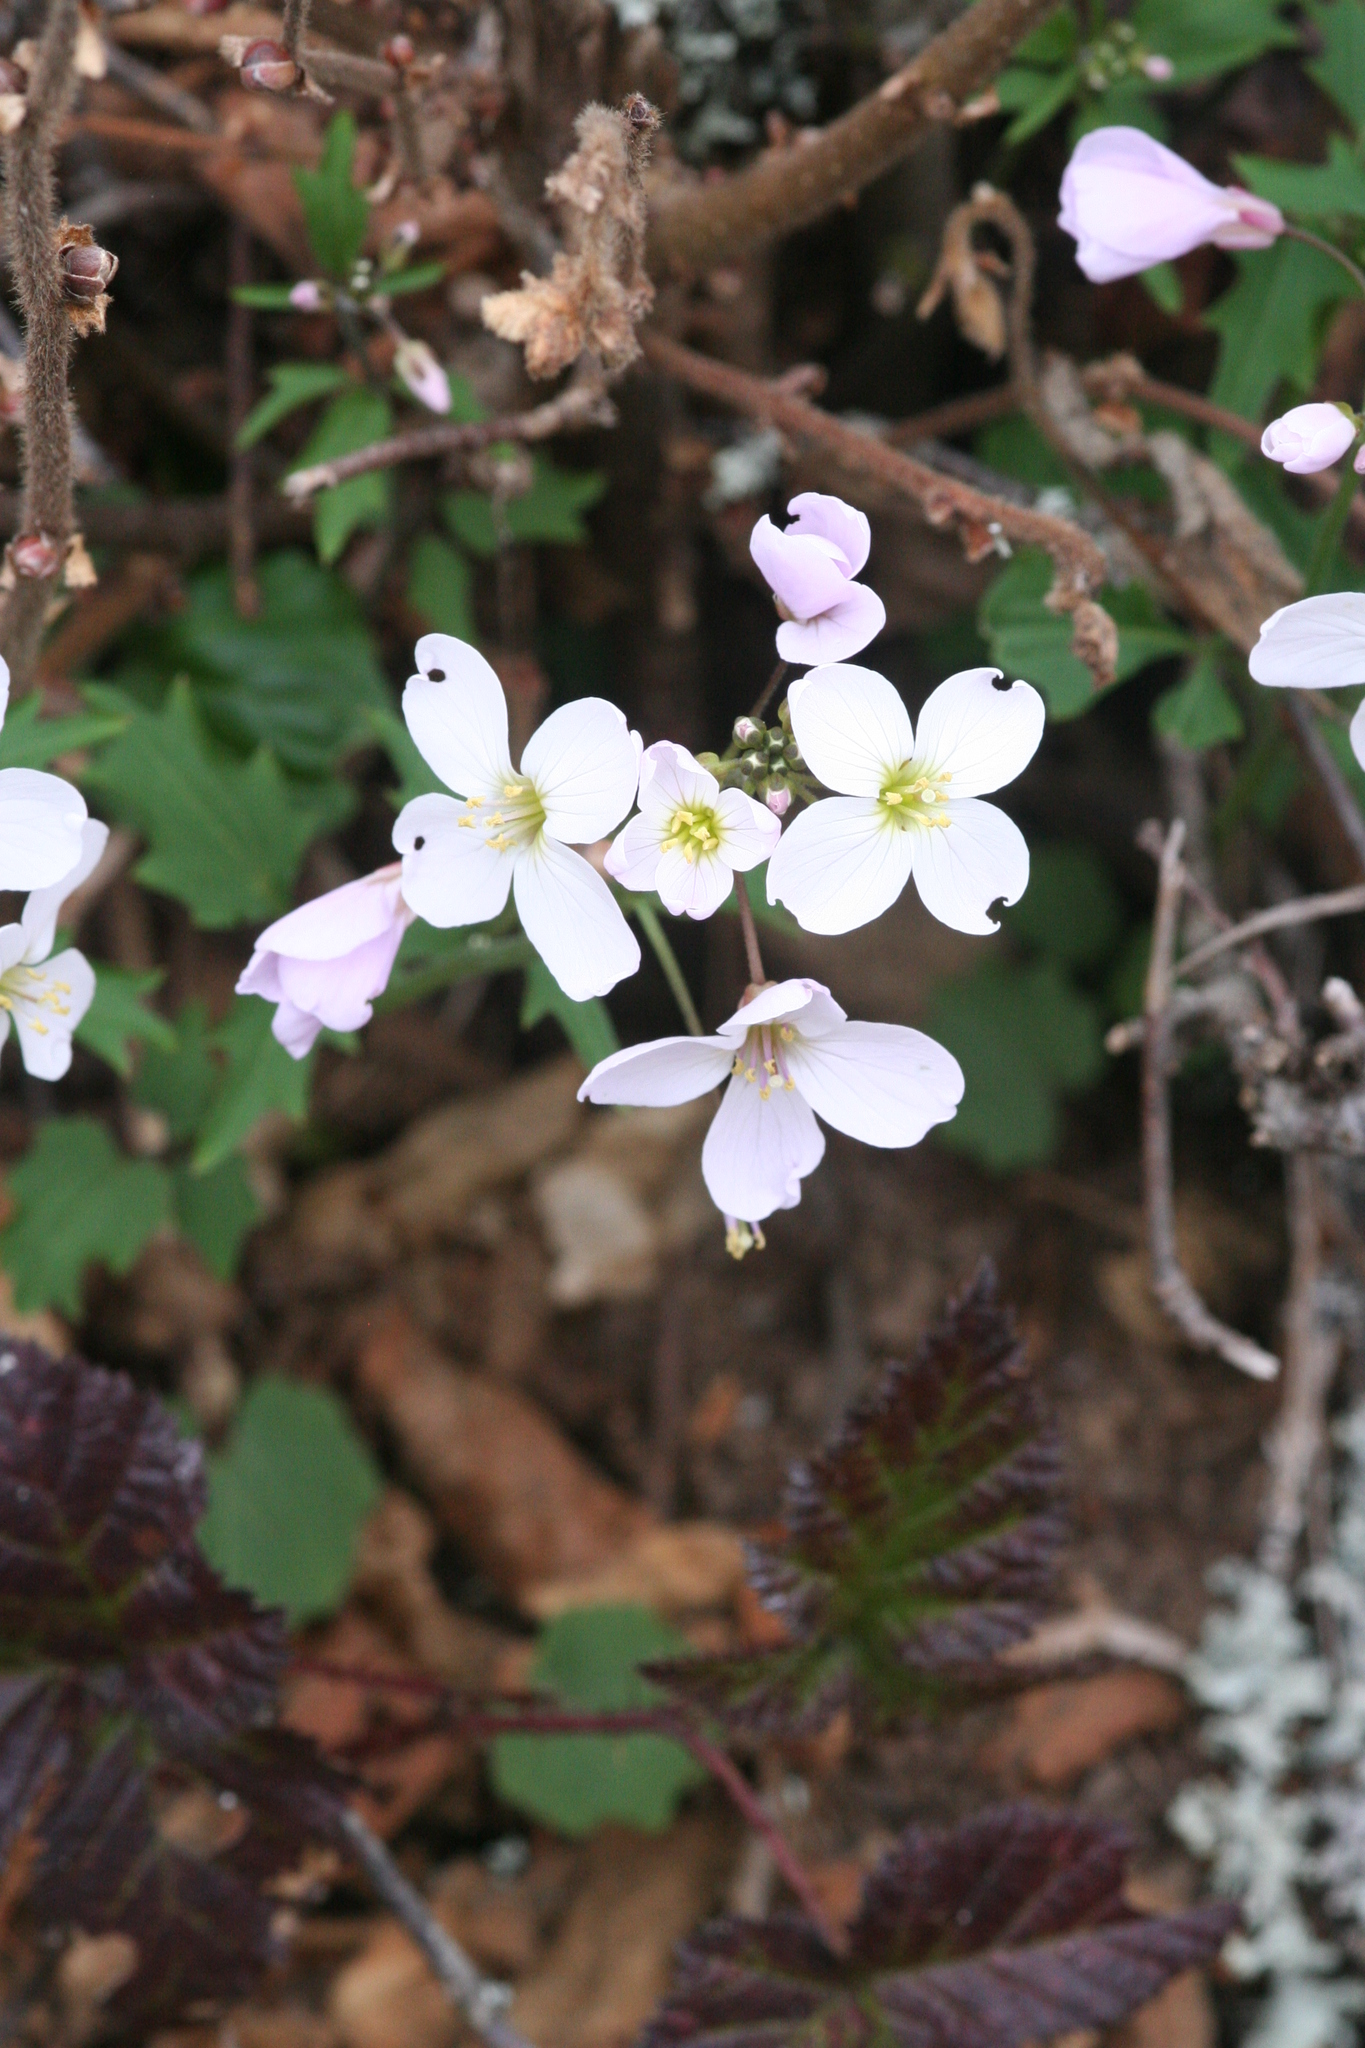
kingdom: Plantae
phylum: Tracheophyta
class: Magnoliopsida
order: Brassicales
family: Brassicaceae
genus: Cardamine
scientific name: Cardamine californica
